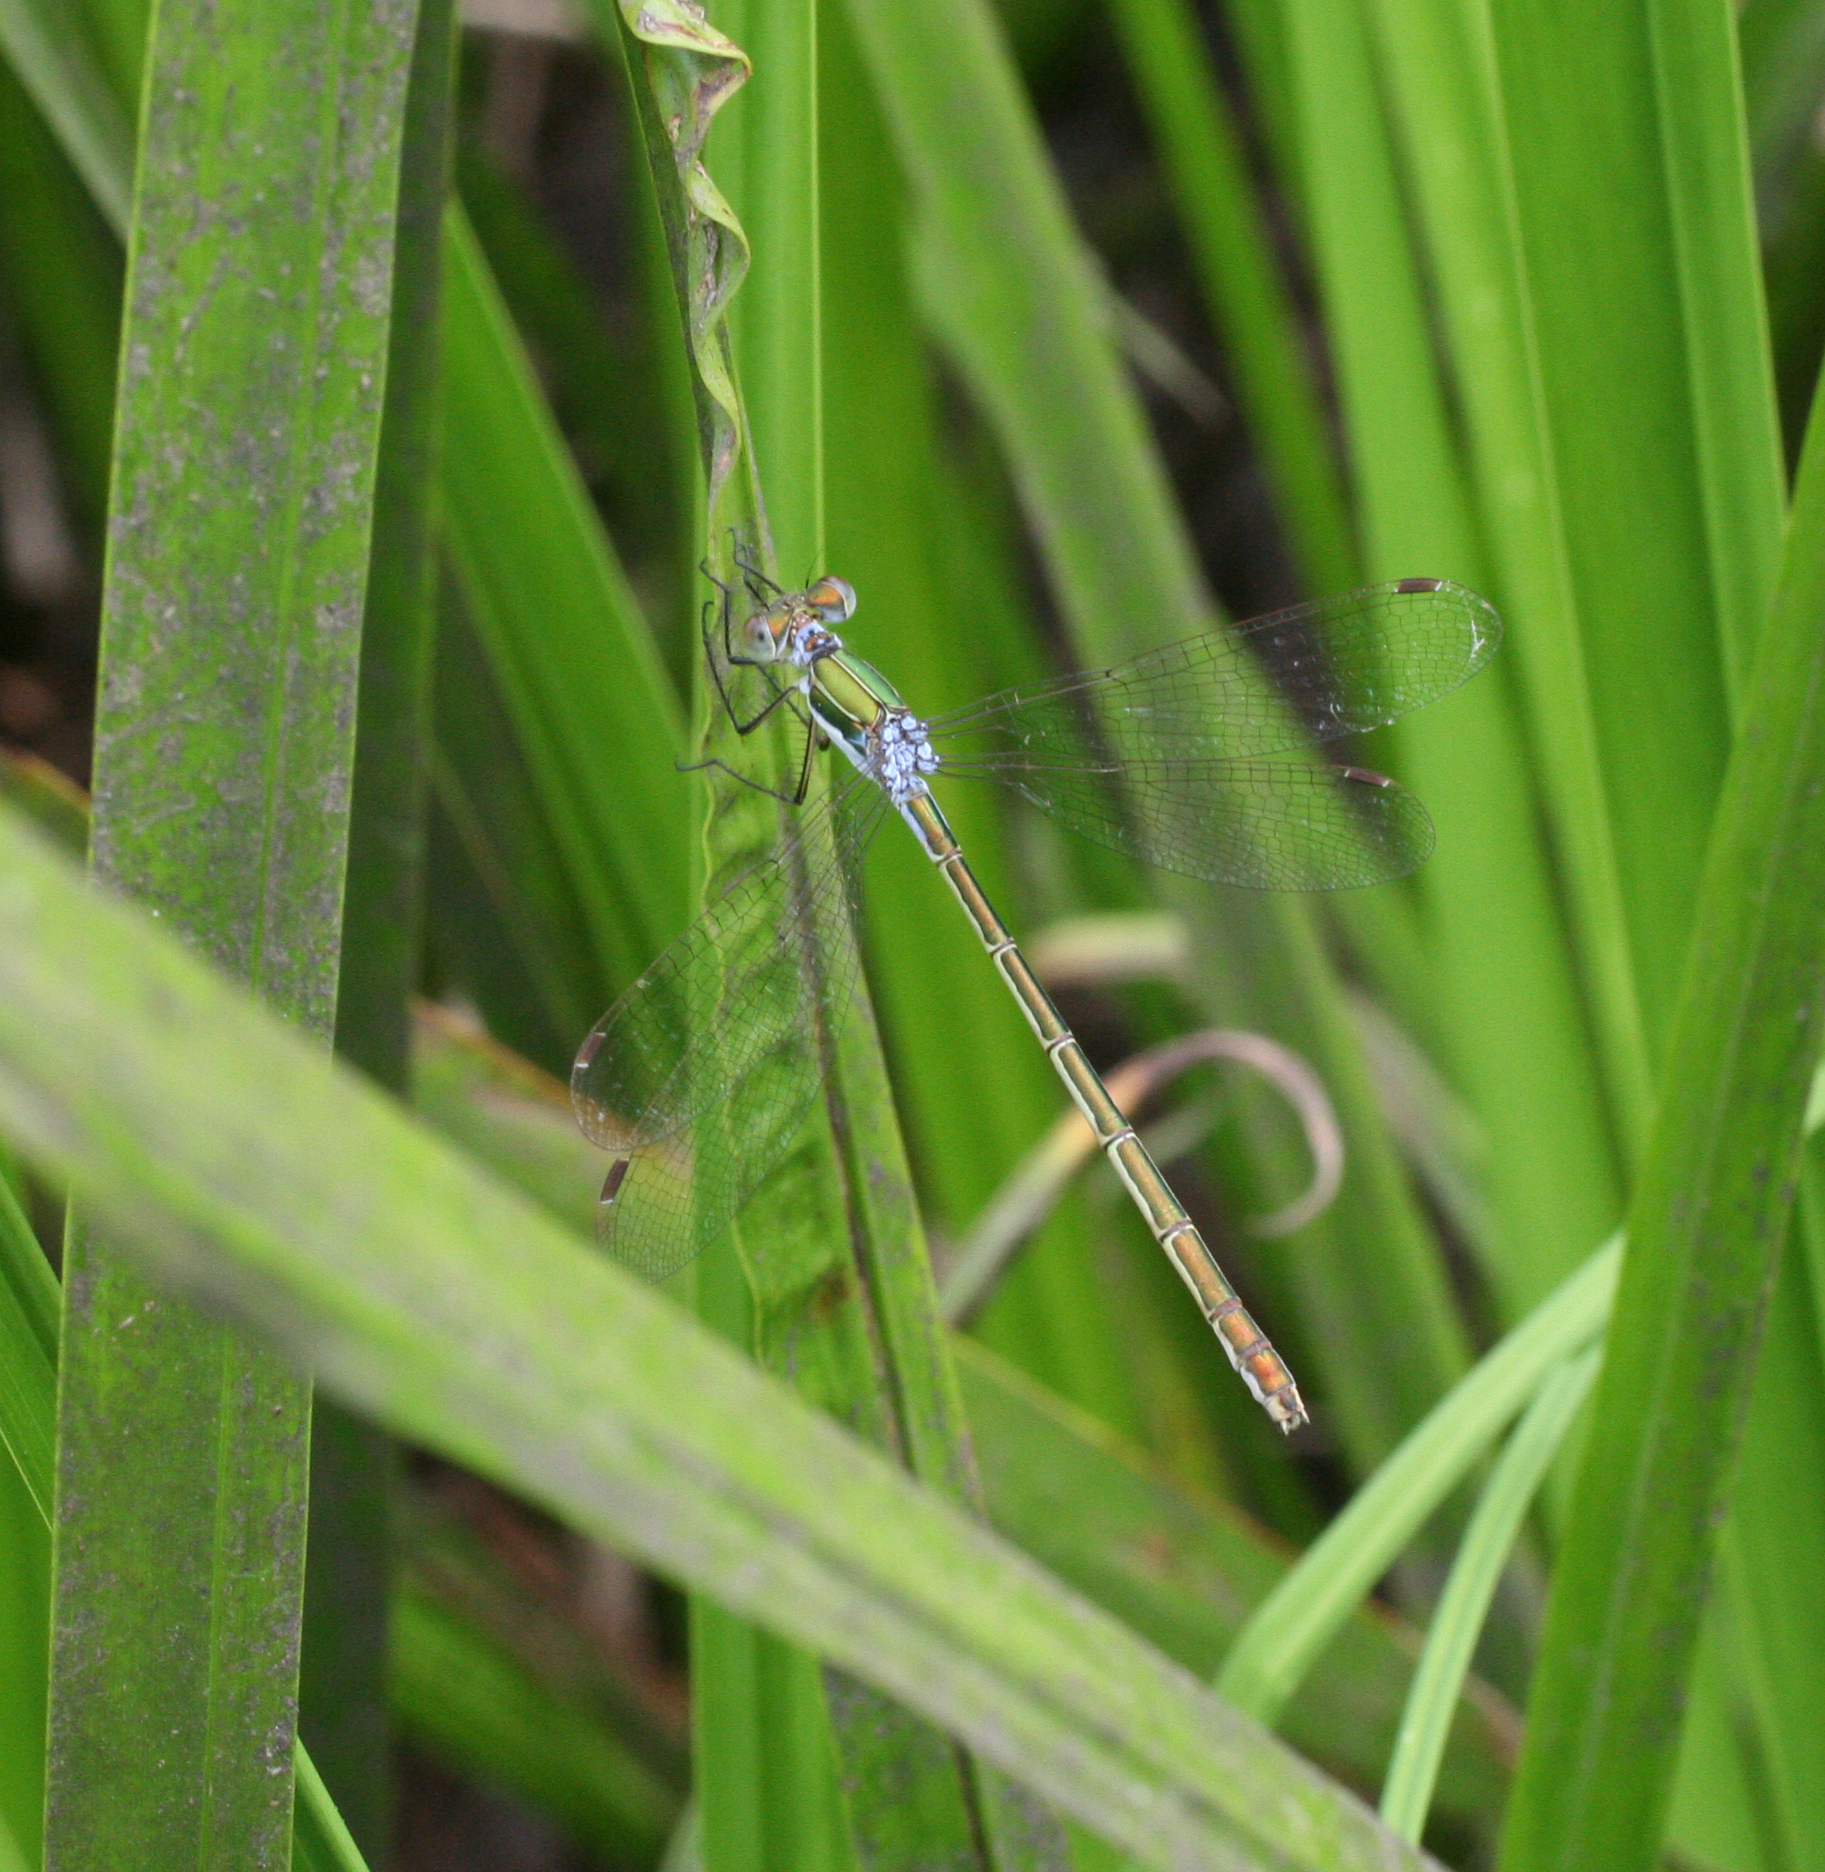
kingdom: Animalia
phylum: Arthropoda
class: Insecta
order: Odonata
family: Lestidae
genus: Lestes
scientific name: Lestes sponsa
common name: Common spreadwing
